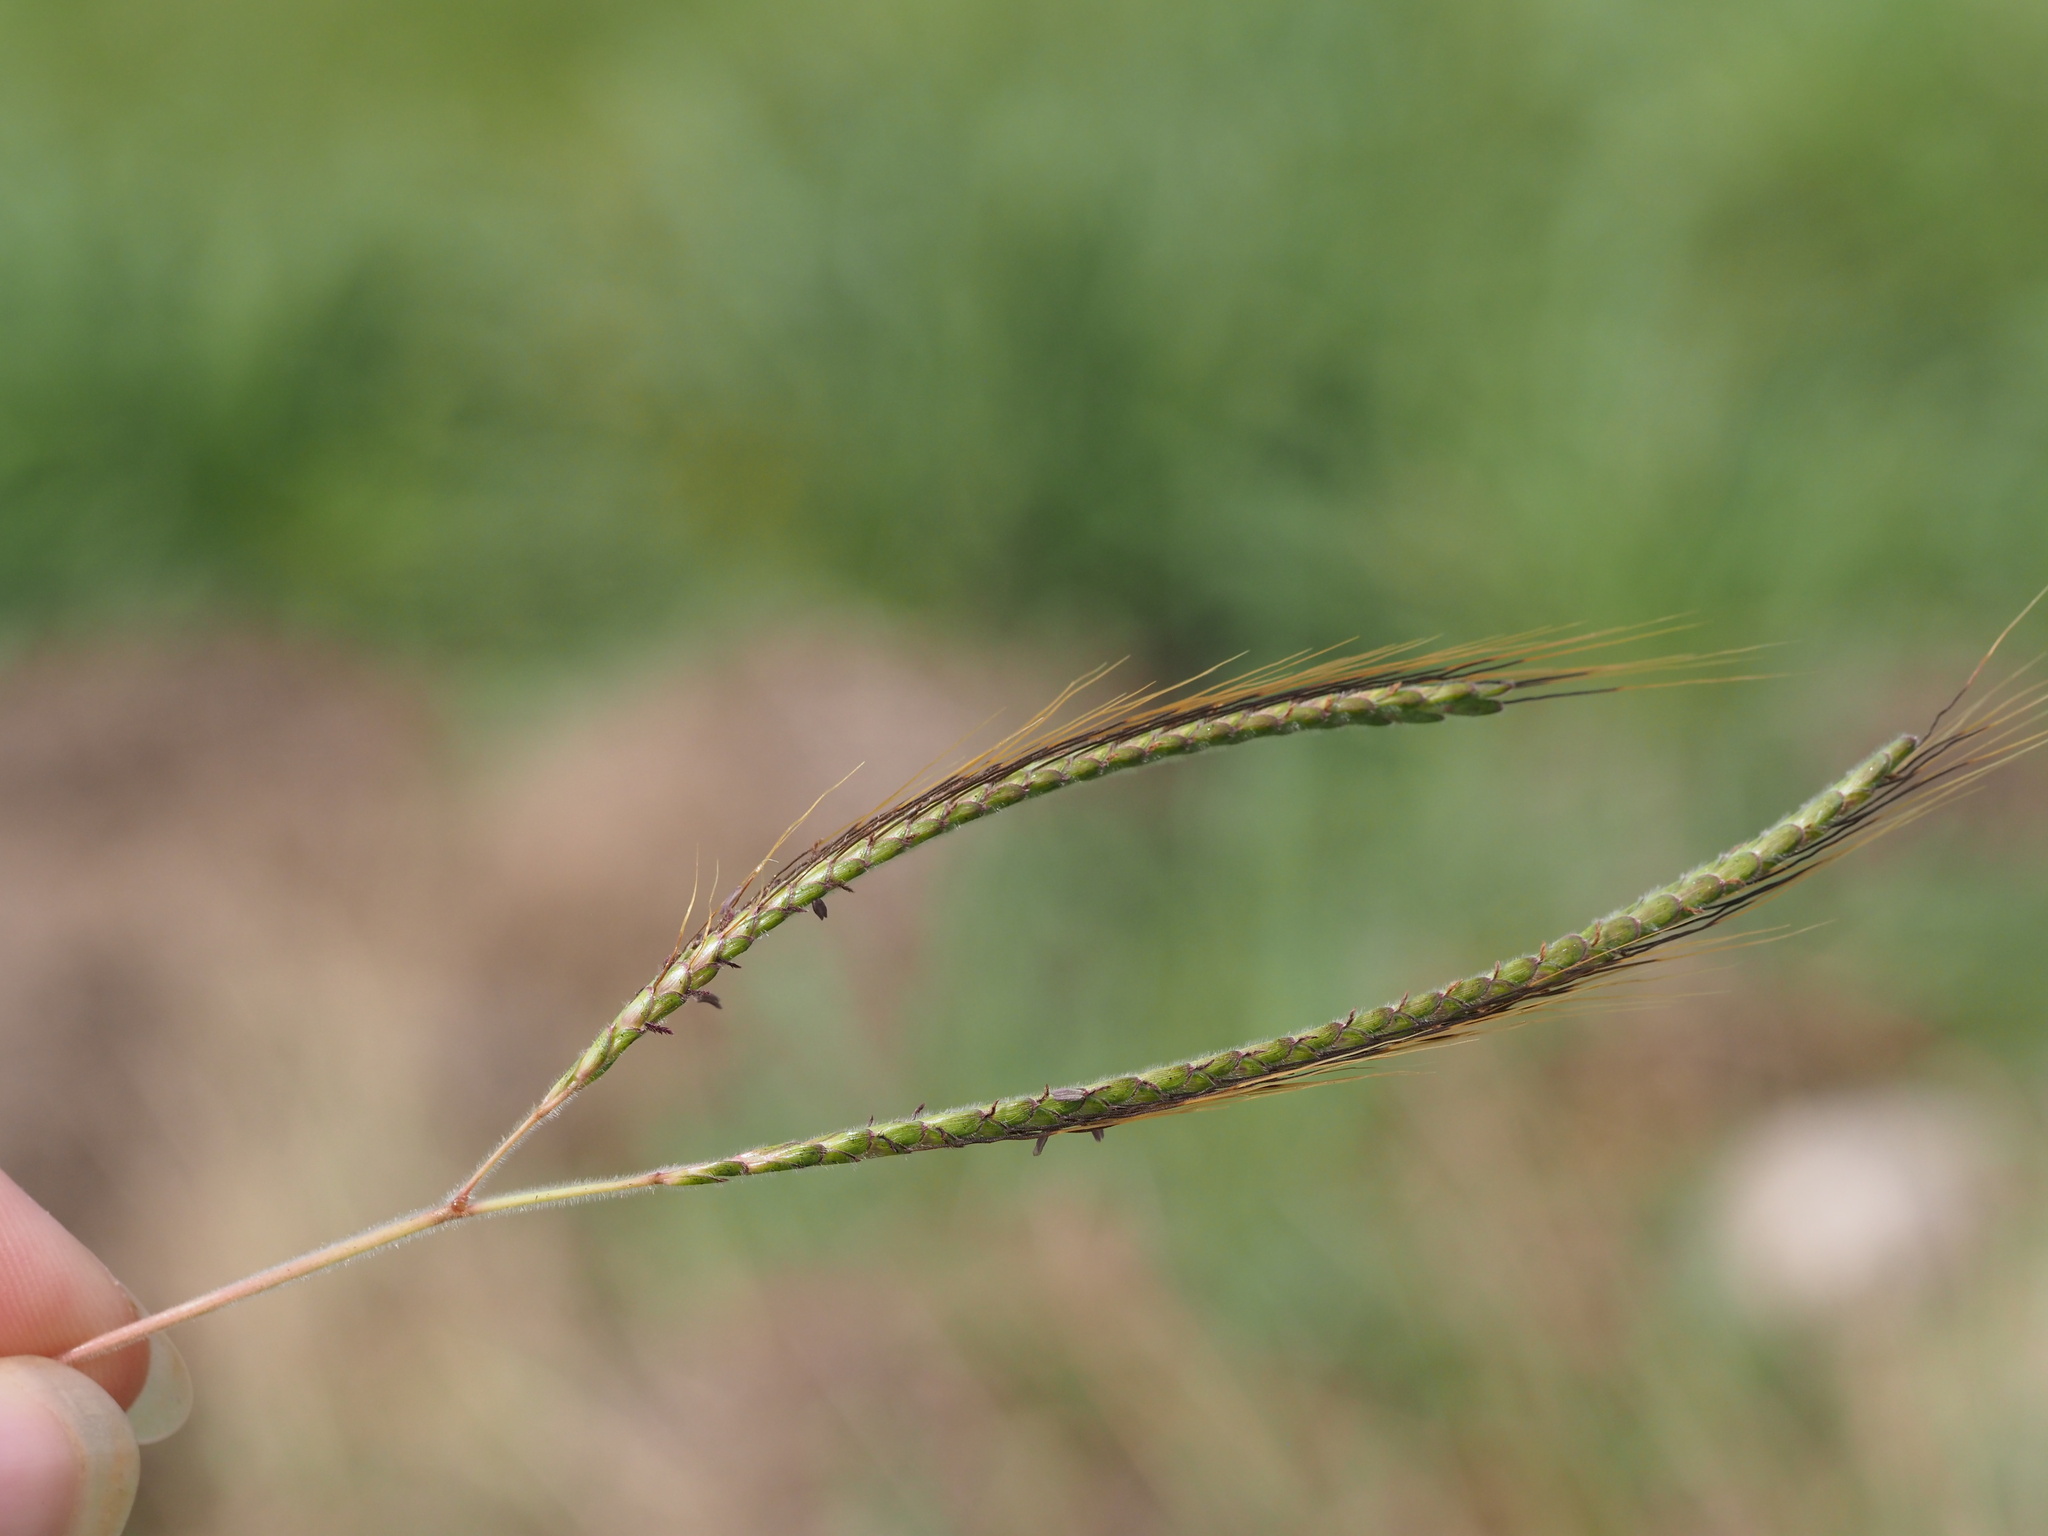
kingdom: Plantae
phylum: Tracheophyta
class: Liliopsida
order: Poales
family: Poaceae
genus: Dichanthium
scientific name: Dichanthium aristatum
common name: Angleton bluestem
